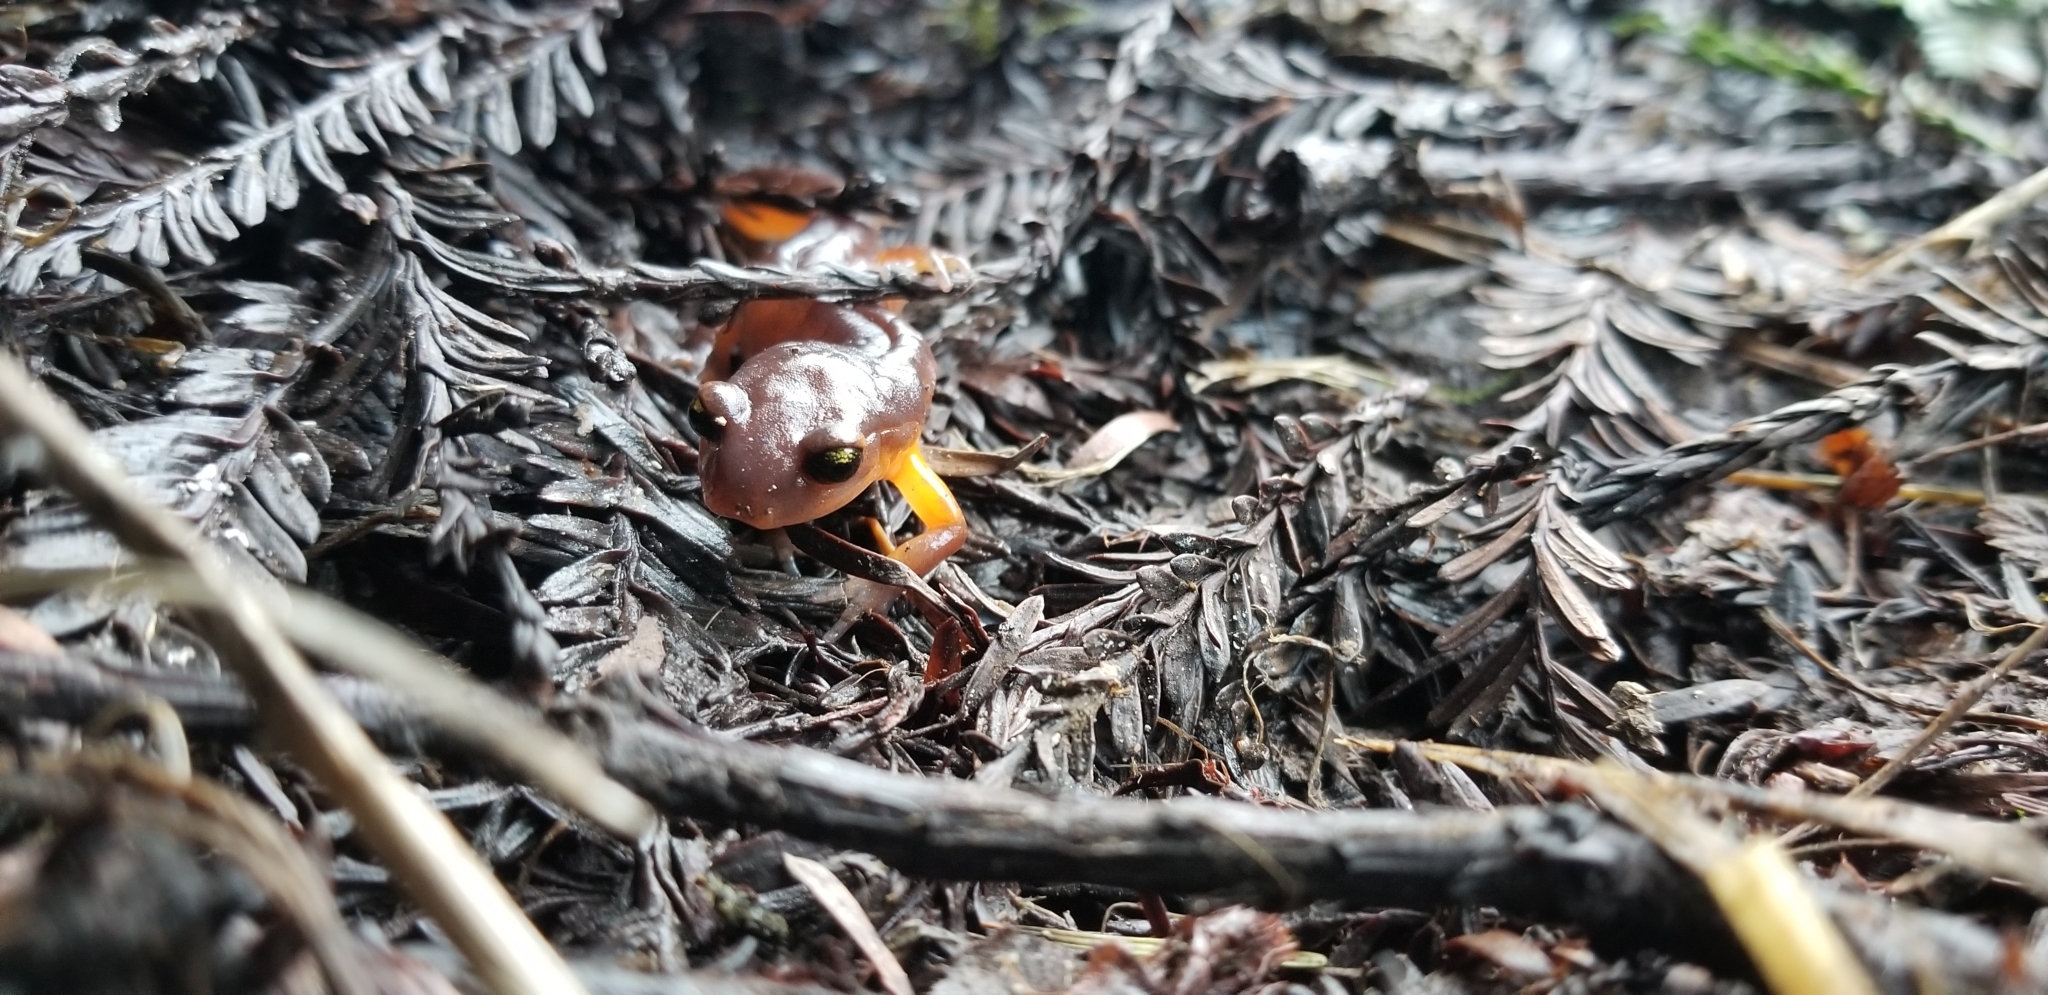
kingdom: Animalia
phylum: Chordata
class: Amphibia
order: Caudata
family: Plethodontidae
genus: Ensatina
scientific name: Ensatina eschscholtzii
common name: Ensatina
